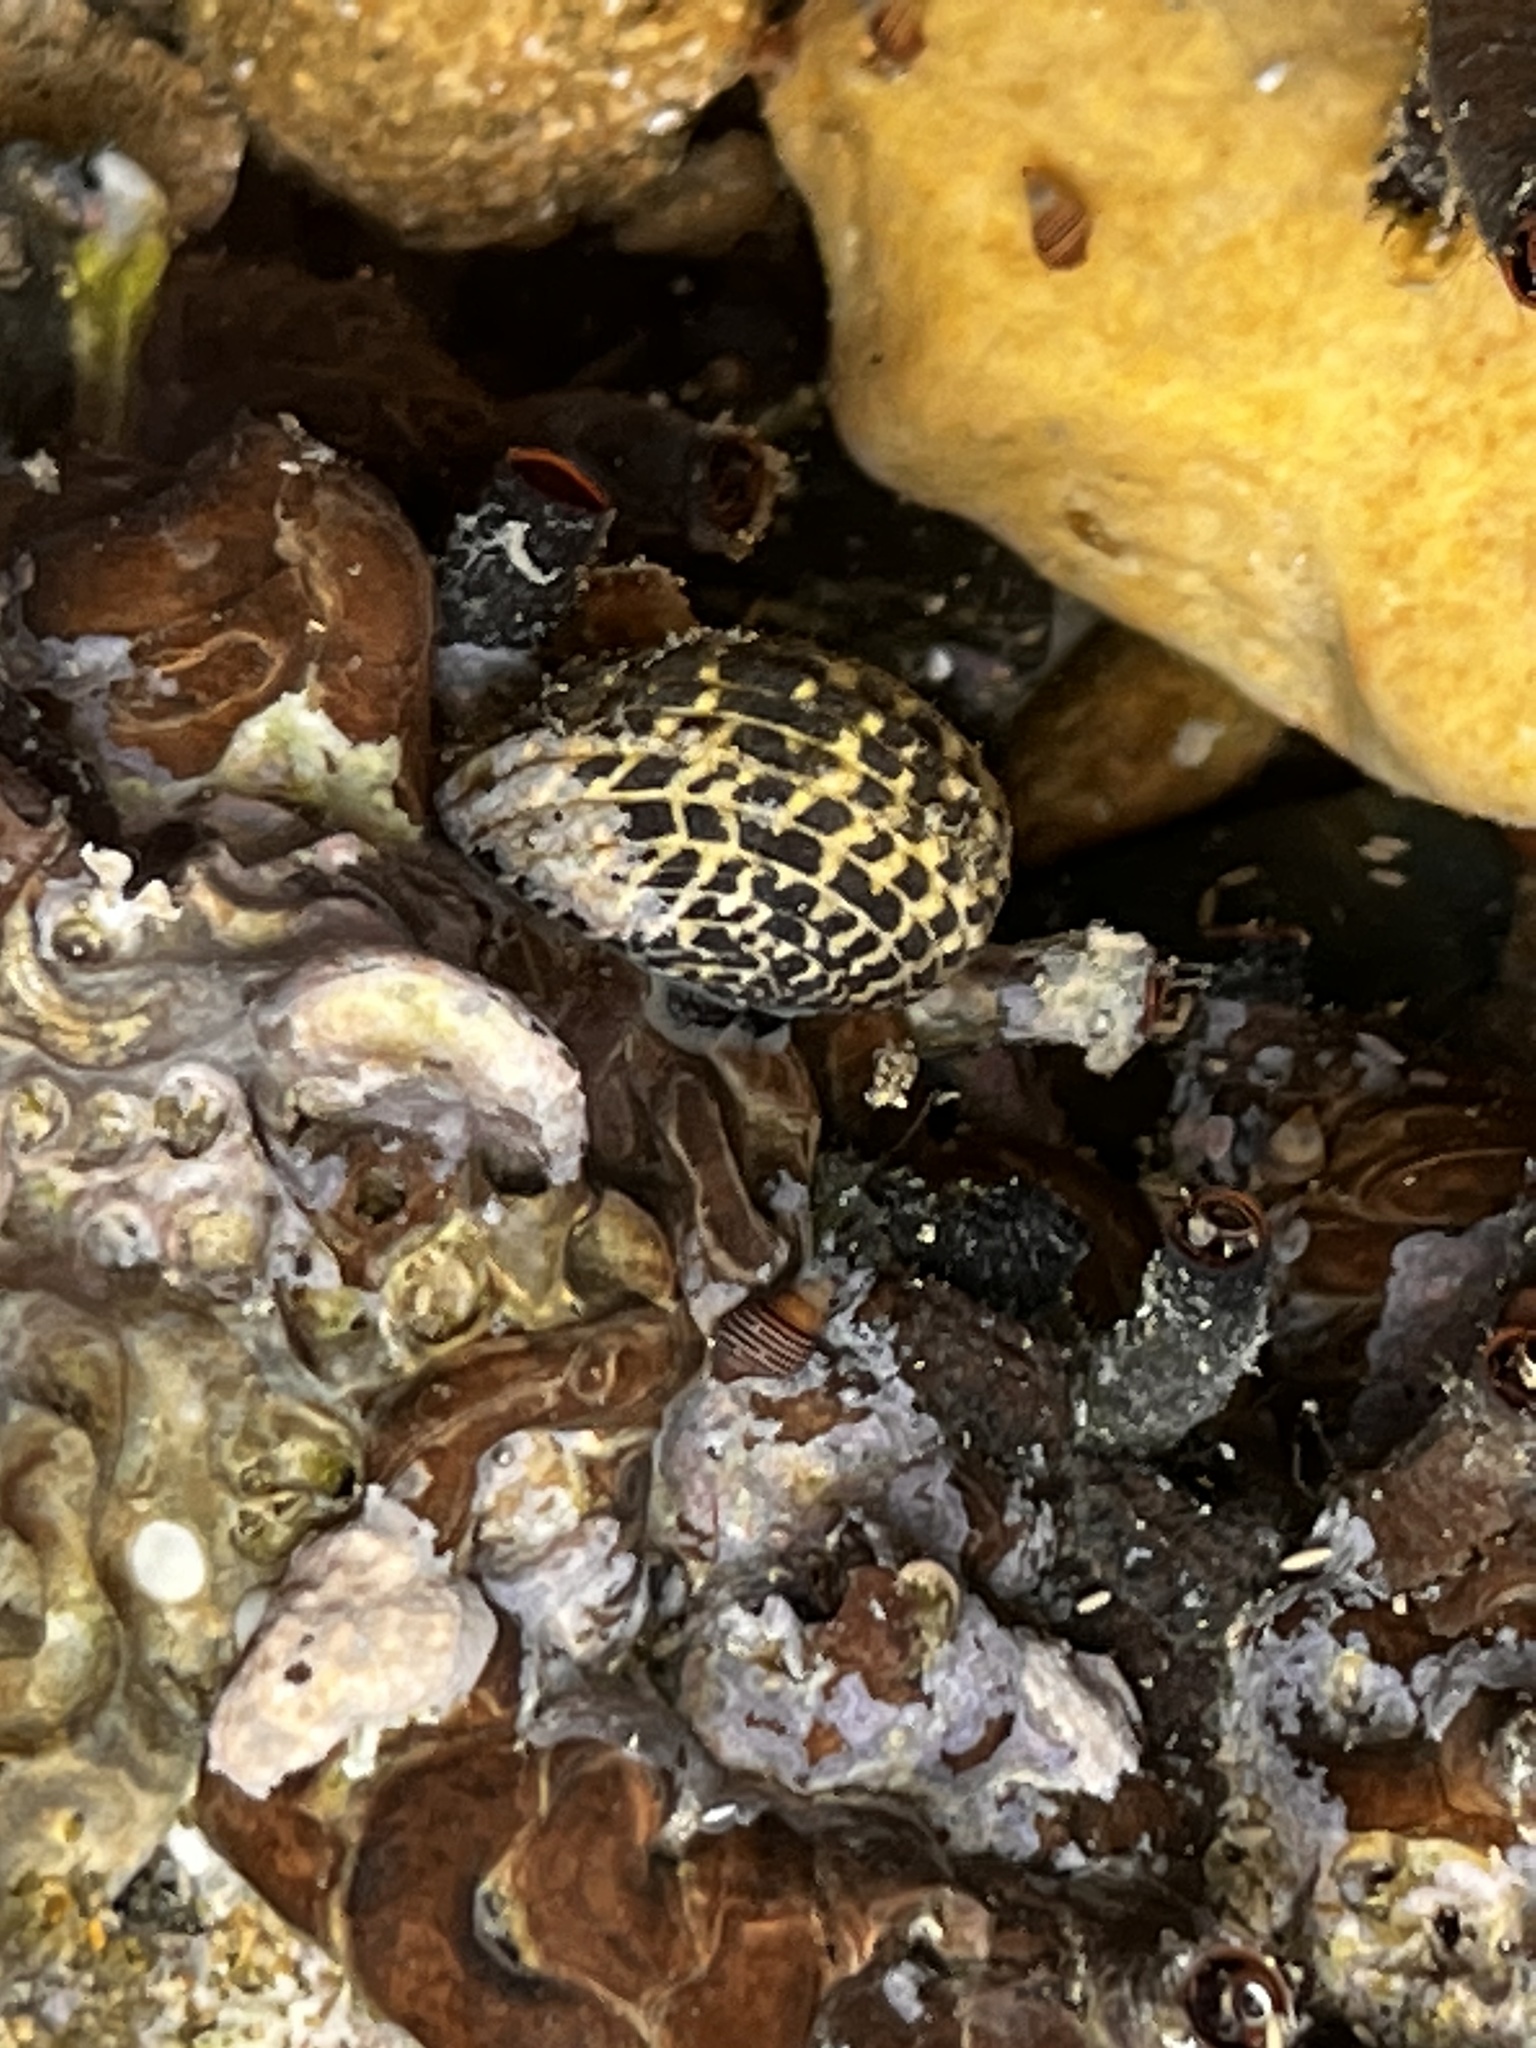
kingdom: Animalia
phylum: Mollusca
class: Gastropoda
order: Cycloneritida
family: Neritidae
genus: Nerita
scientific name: Nerita tessellata
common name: Checkered nerite
